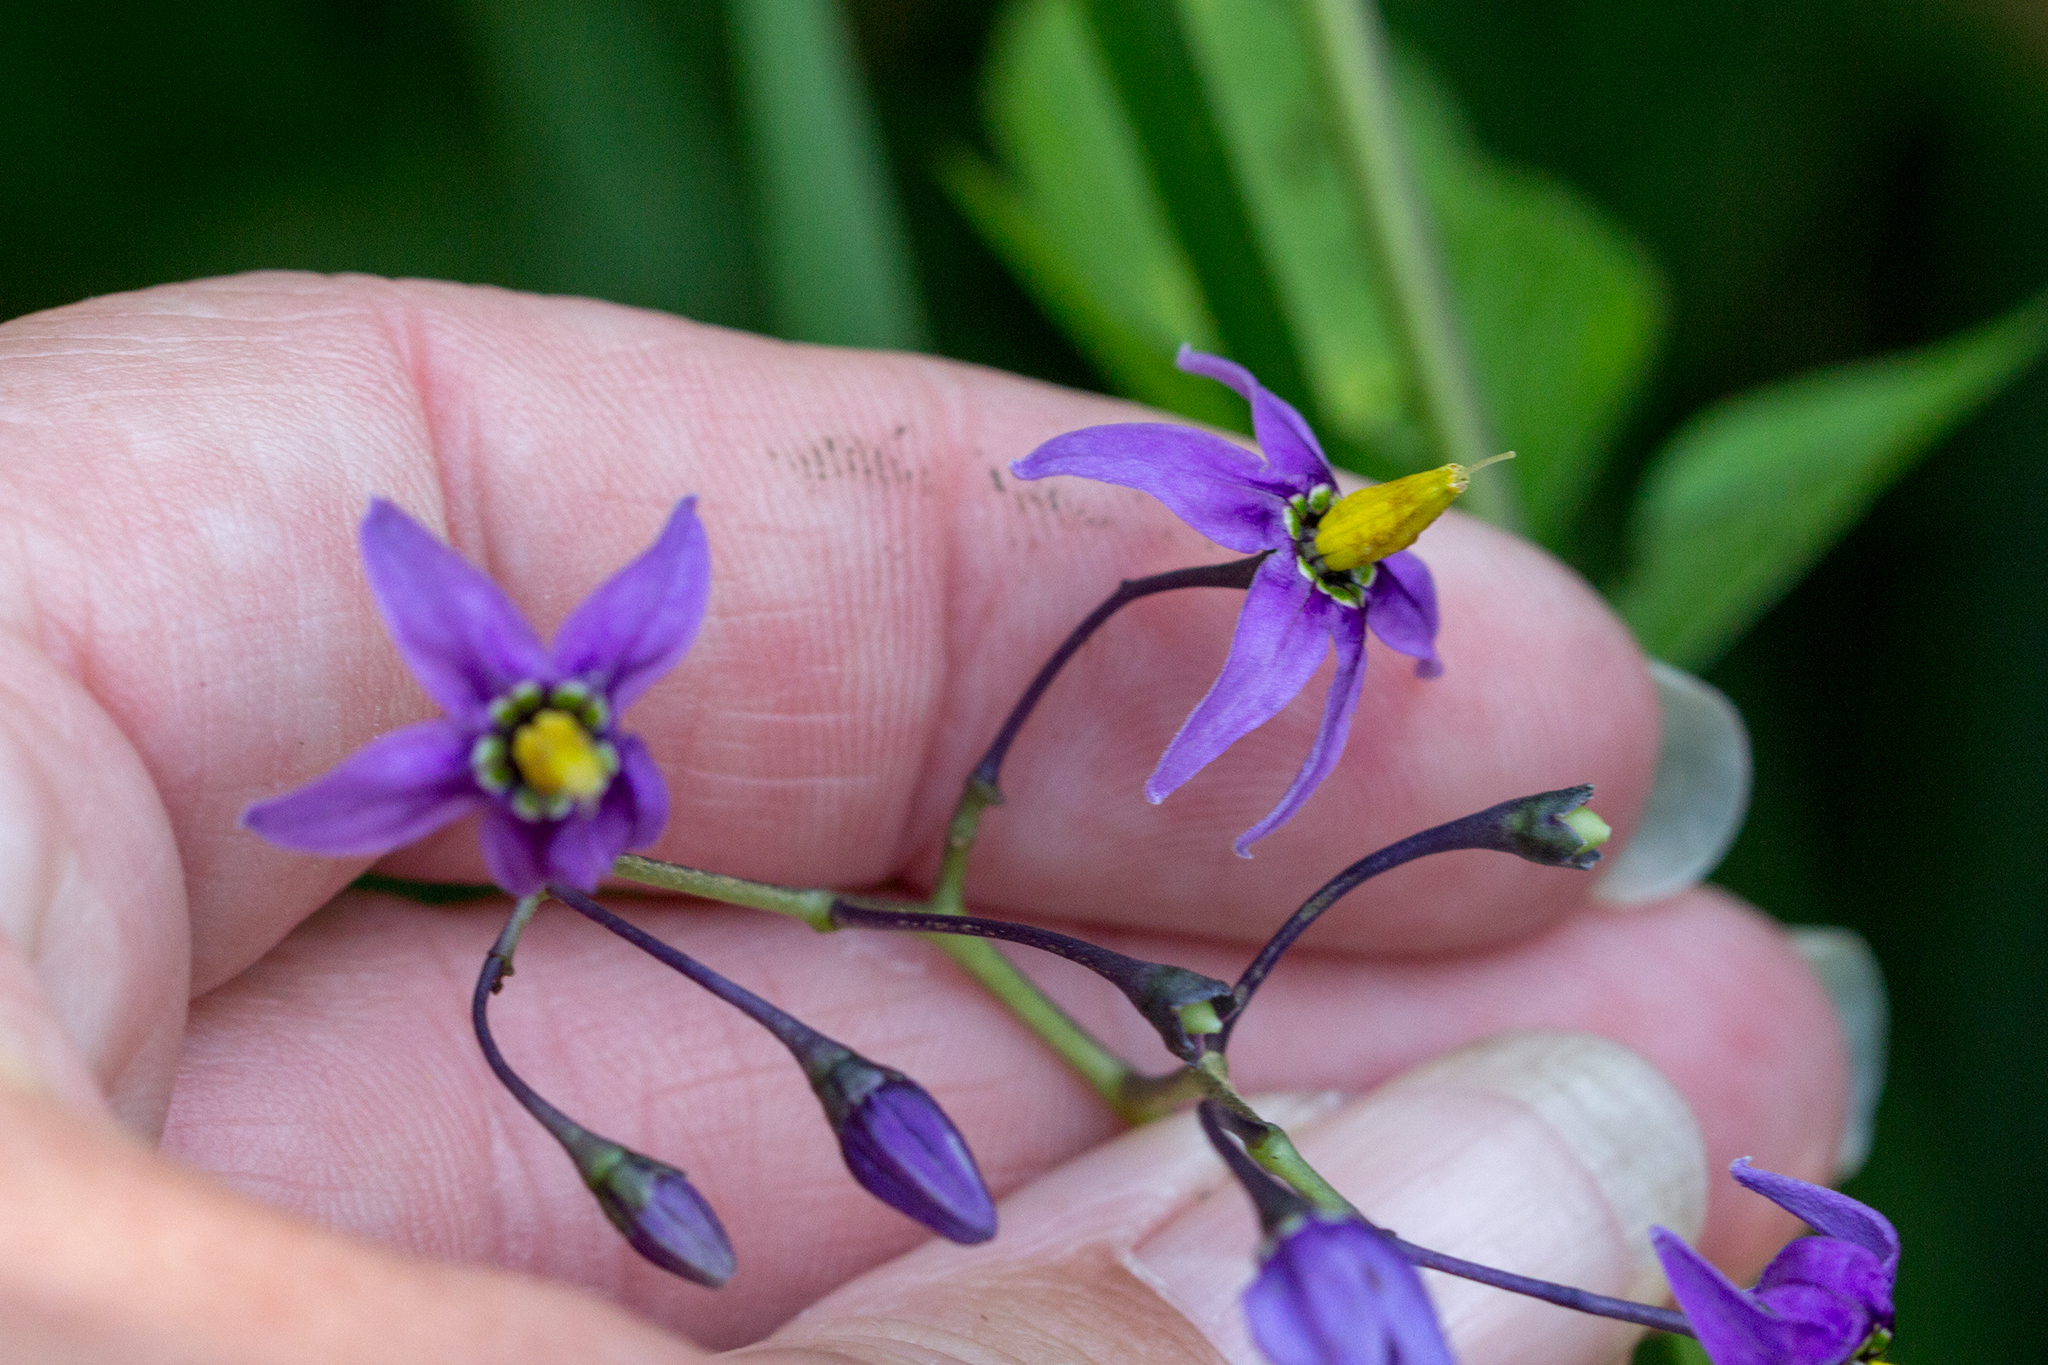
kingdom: Plantae
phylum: Tracheophyta
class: Magnoliopsida
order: Solanales
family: Solanaceae
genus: Solanum
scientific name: Solanum dulcamara
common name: Climbing nightshade
